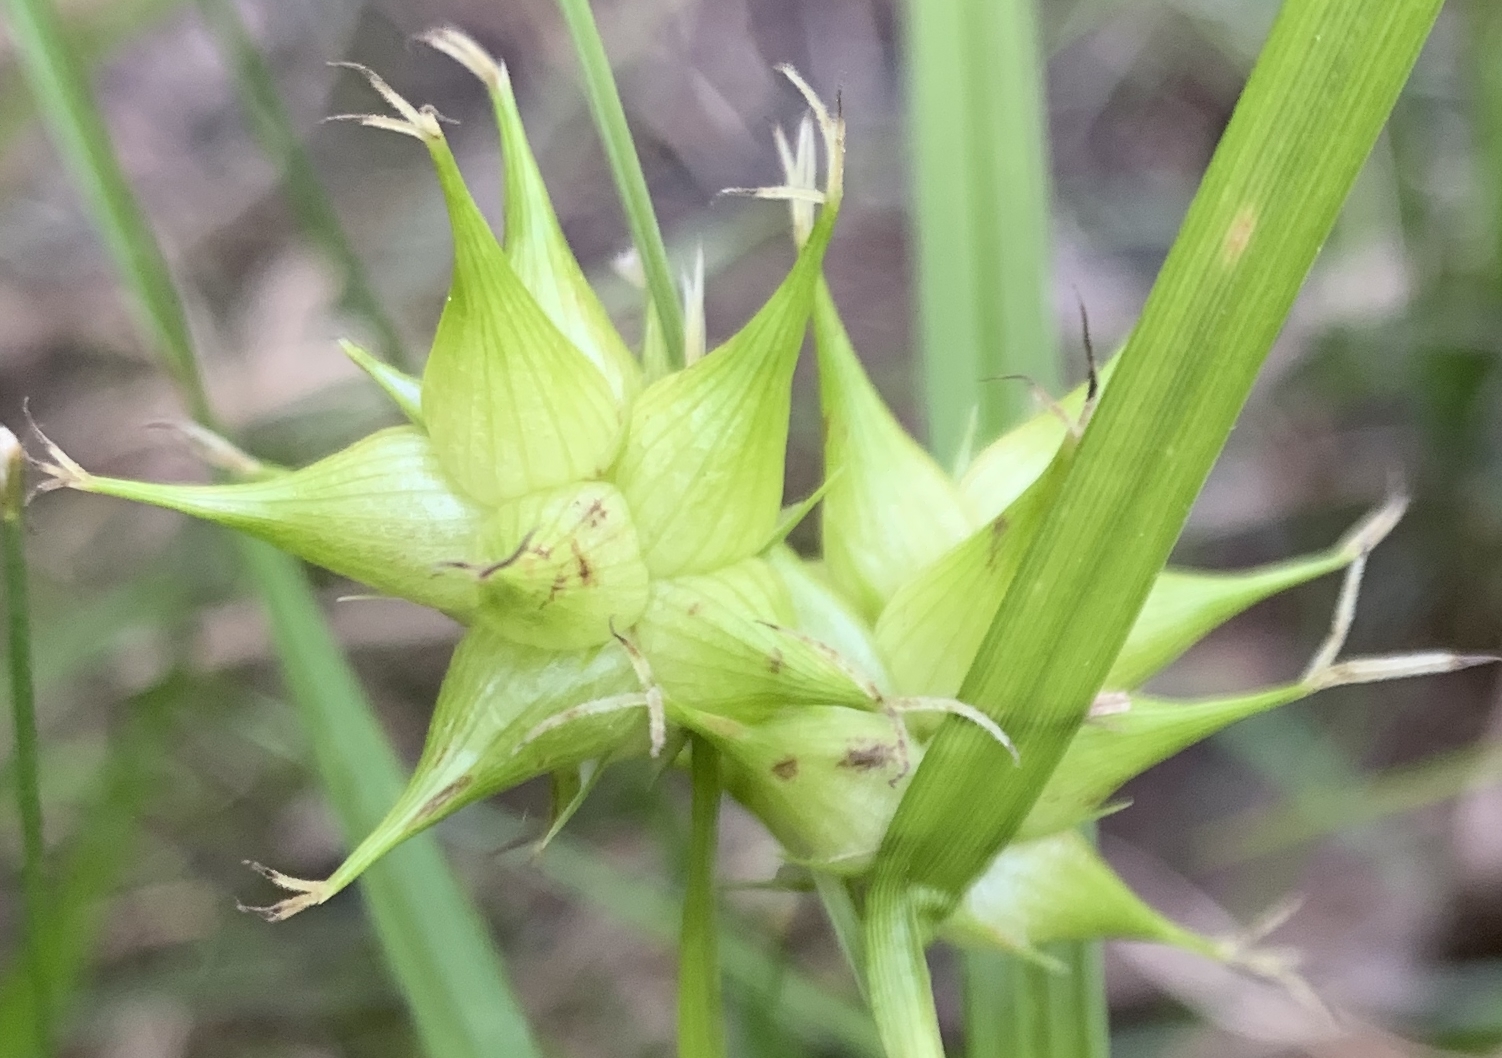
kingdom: Plantae
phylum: Tracheophyta
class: Liliopsida
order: Poales
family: Cyperaceae
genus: Carex
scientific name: Carex intumescens
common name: Greater bladder sedge
